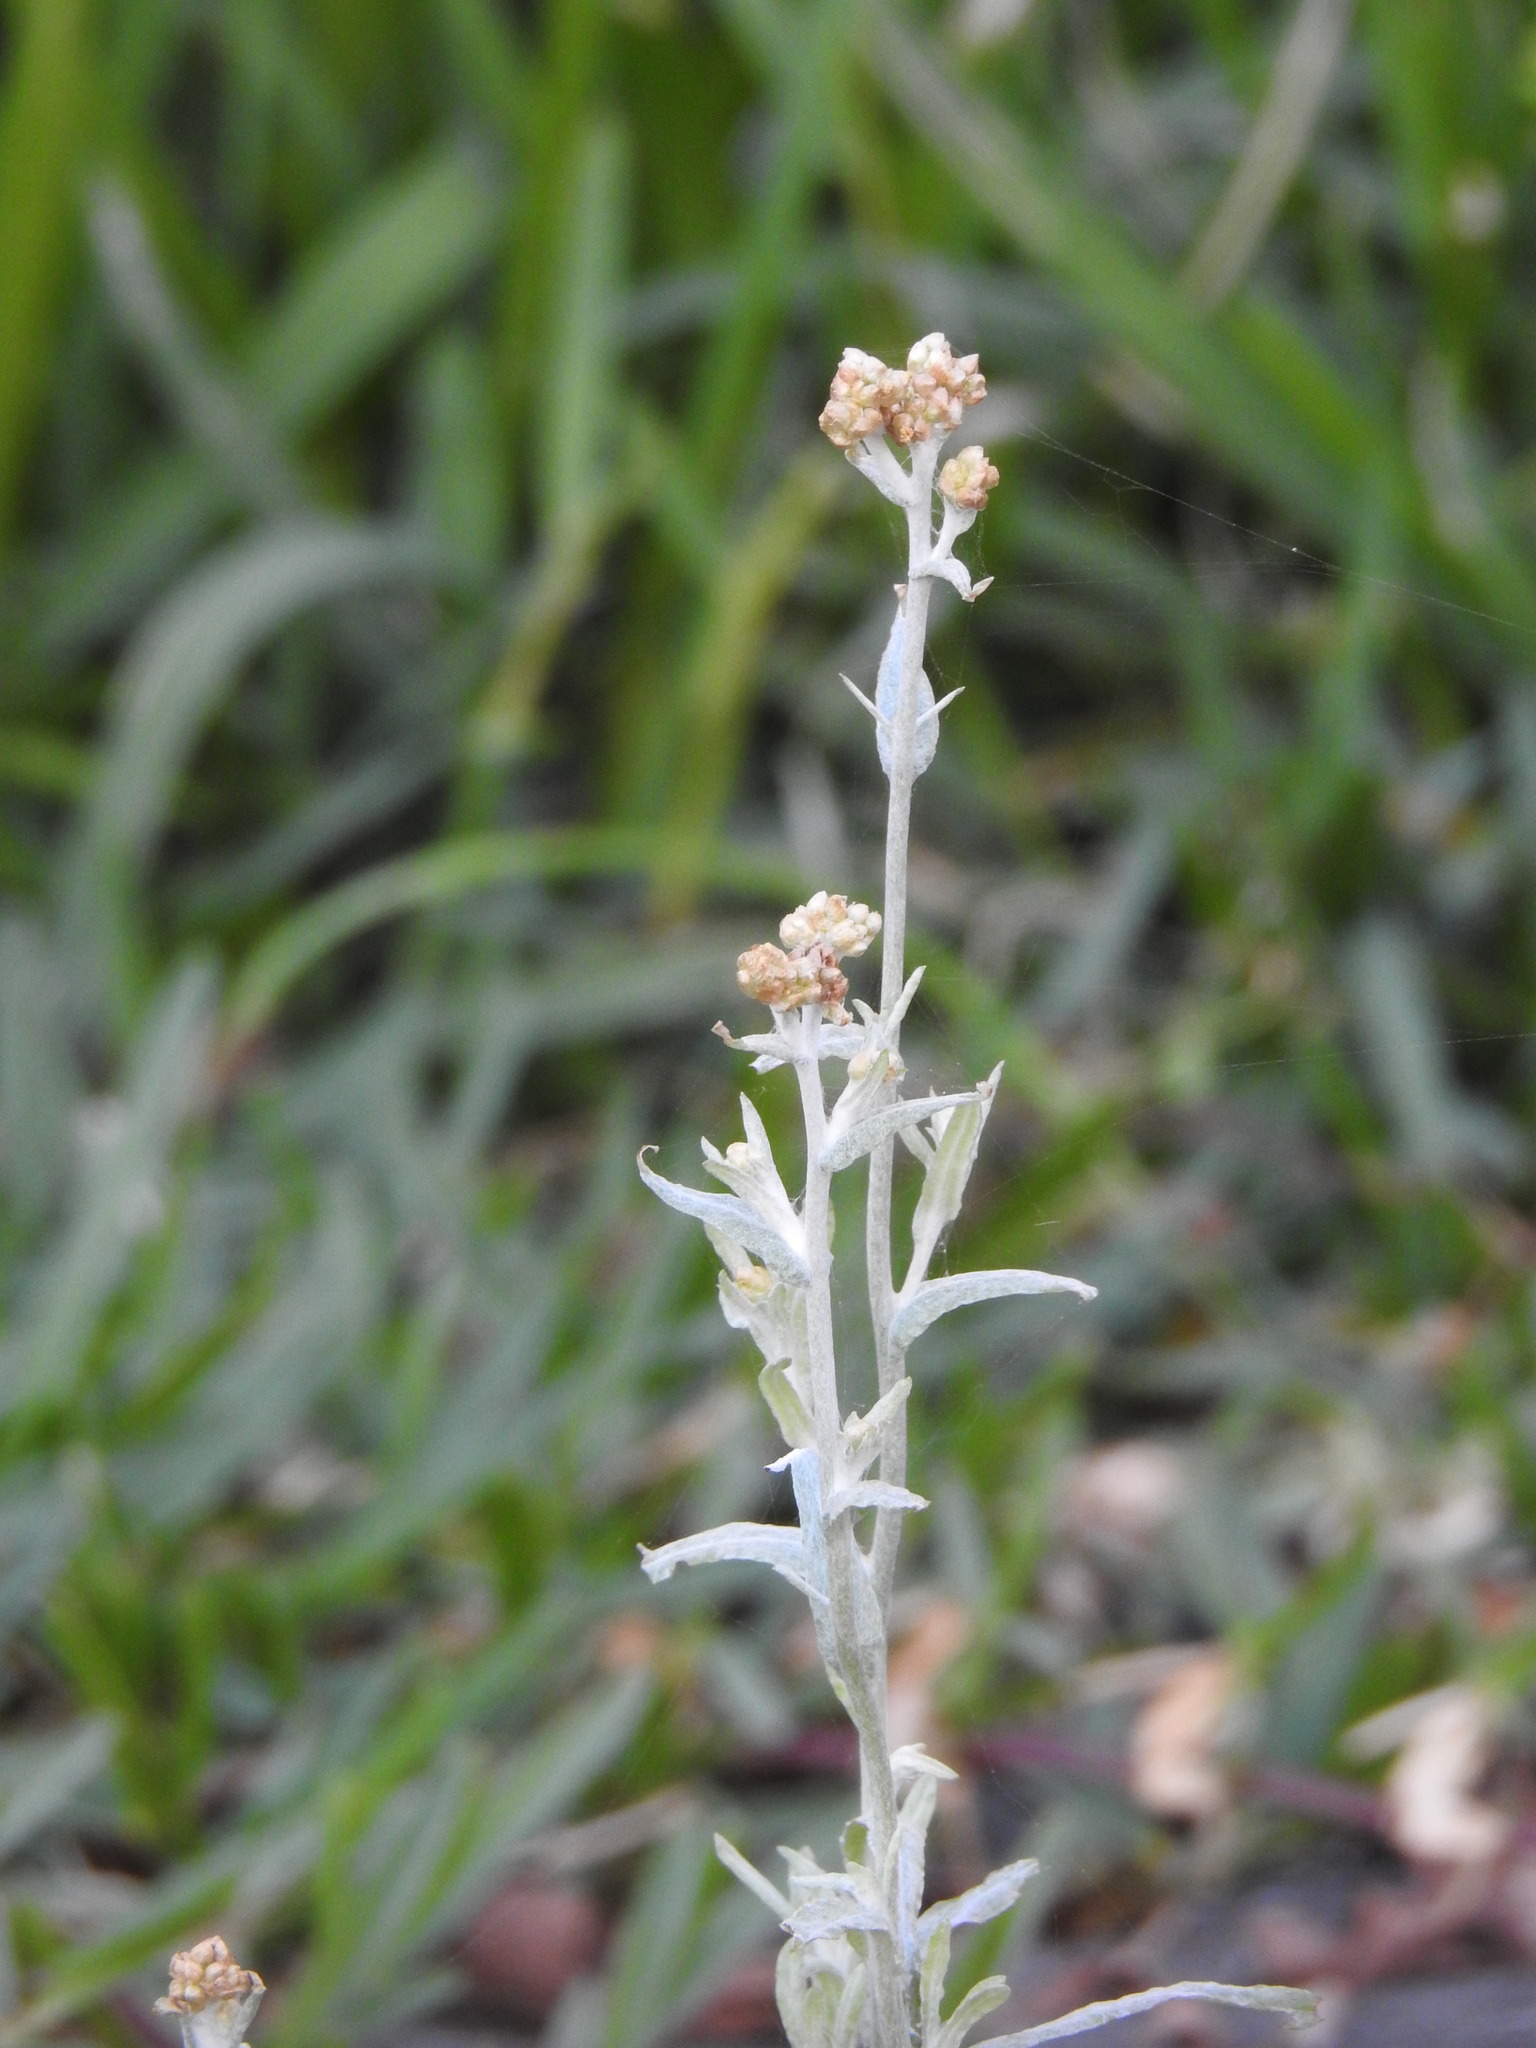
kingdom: Plantae
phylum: Tracheophyta
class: Magnoliopsida
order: Asterales
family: Asteraceae
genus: Helichrysum
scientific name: Helichrysum luteoalbum
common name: Daisy
